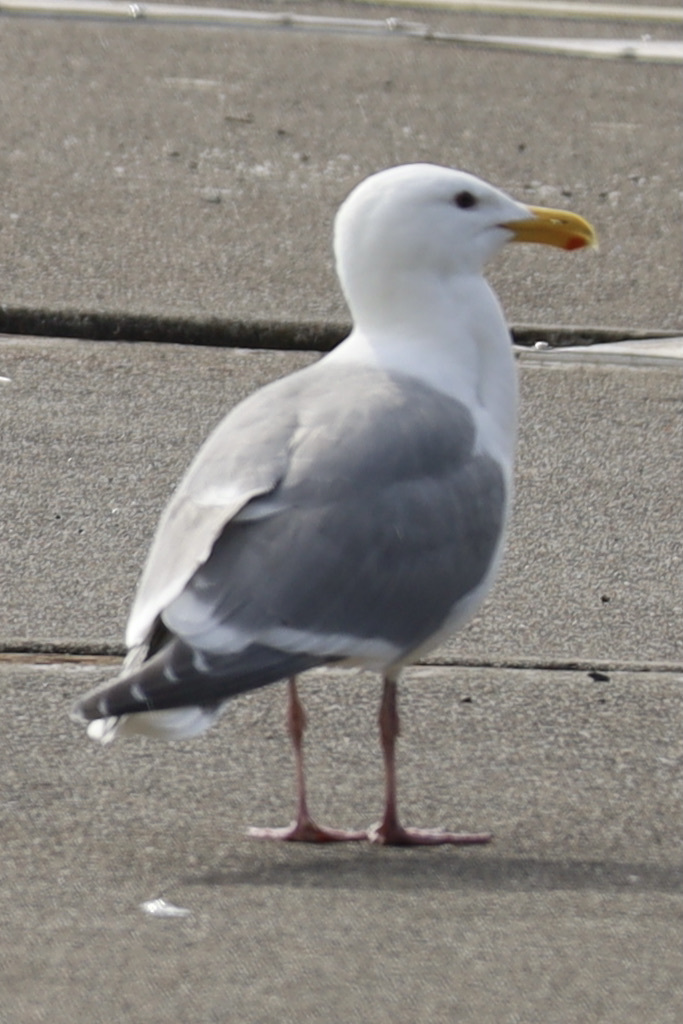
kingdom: Animalia
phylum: Chordata
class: Aves
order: Charadriiformes
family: Laridae
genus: Larus
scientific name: Larus
